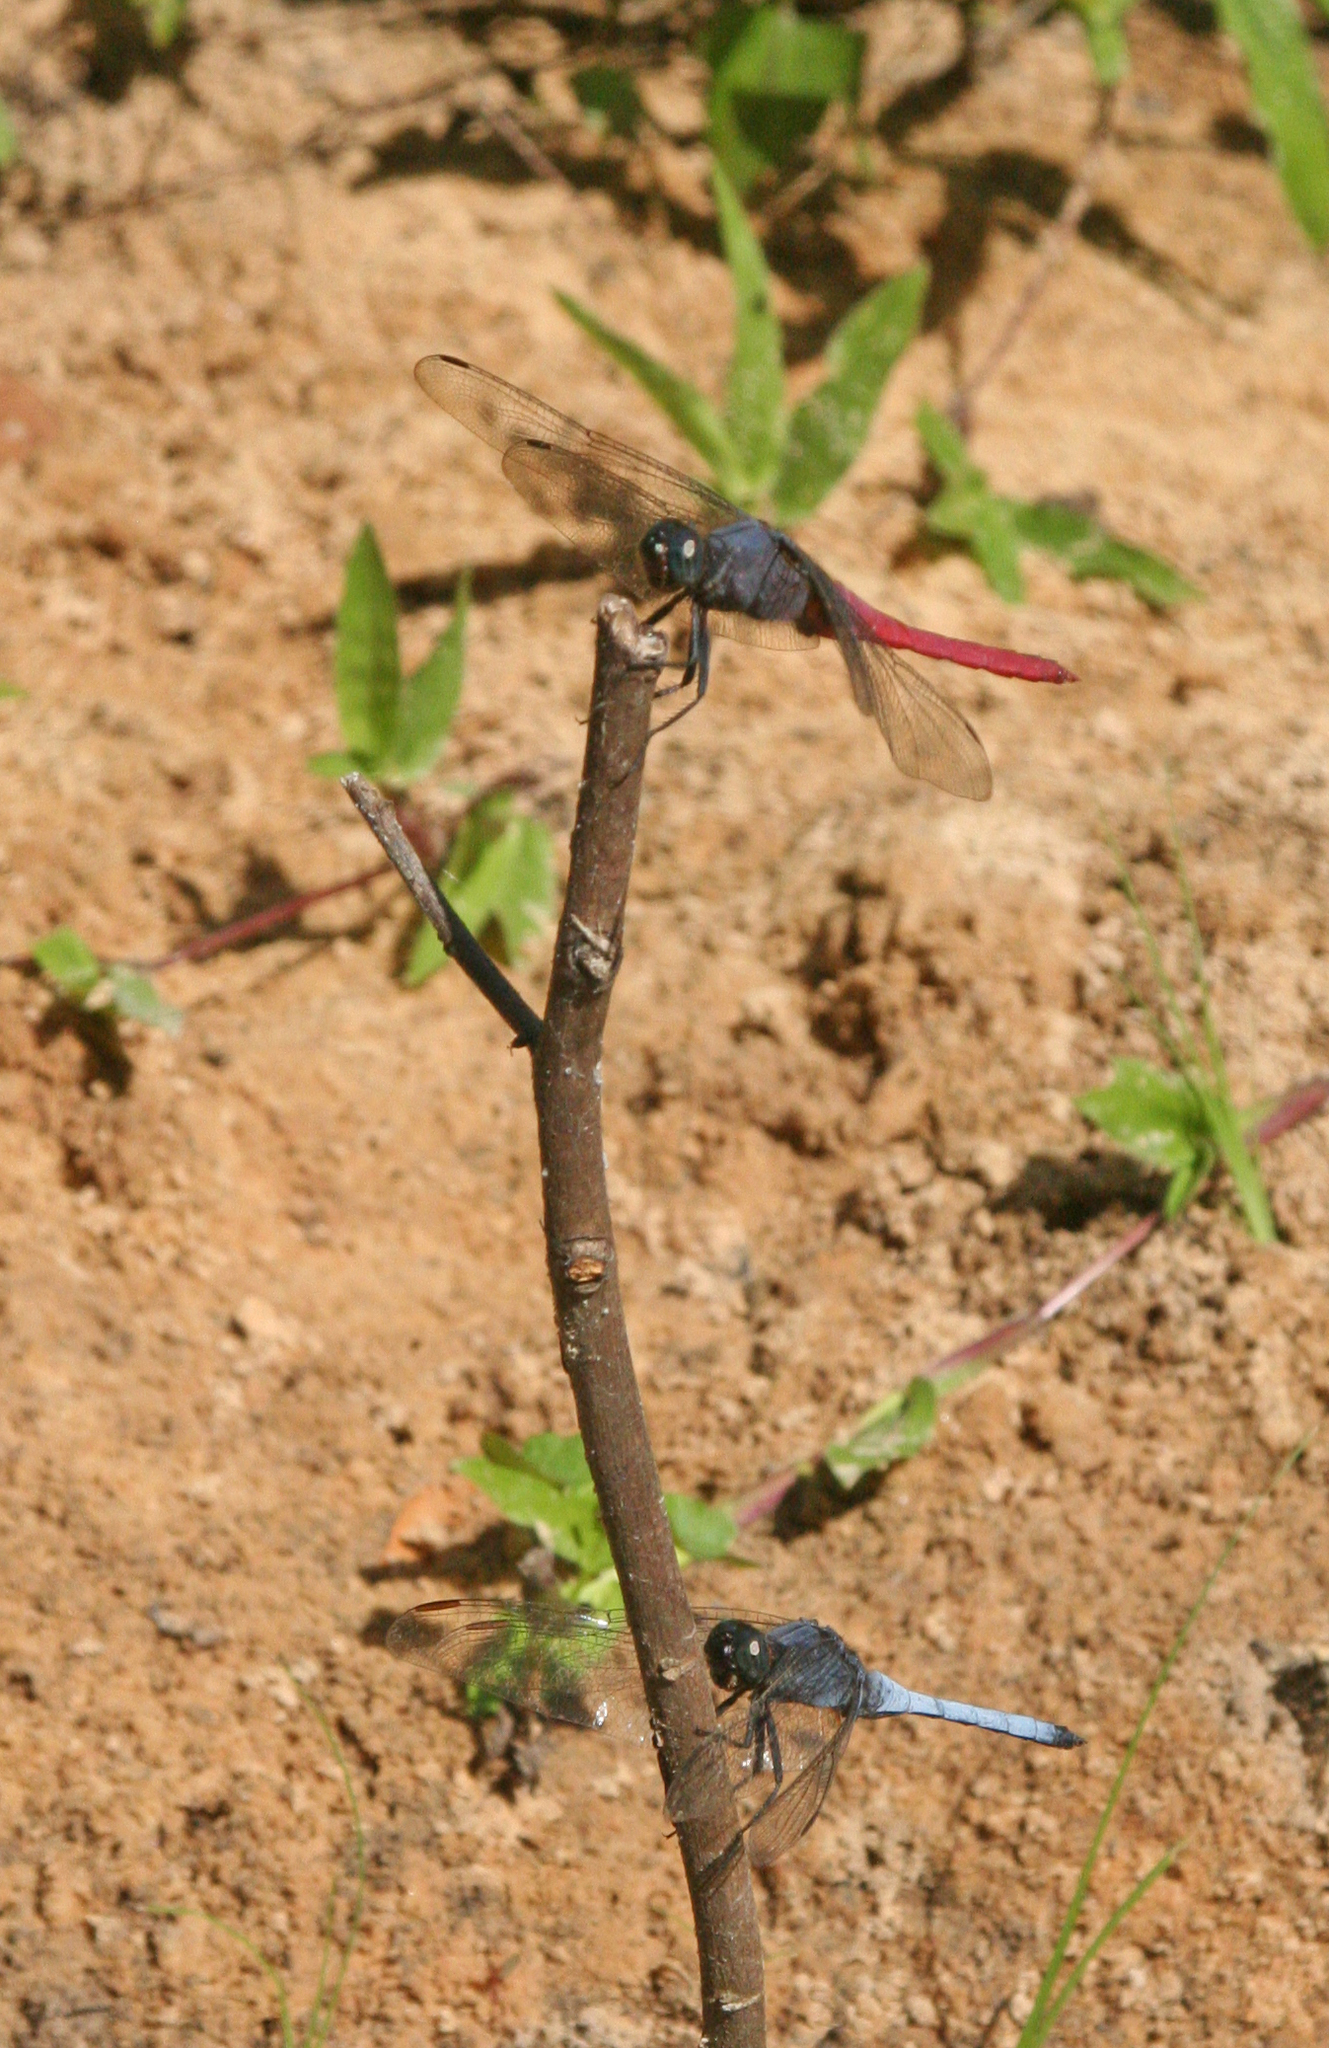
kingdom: Animalia
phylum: Arthropoda
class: Insecta
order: Odonata
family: Libellulidae
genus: Orthetrum
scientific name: Orthetrum glaucum
